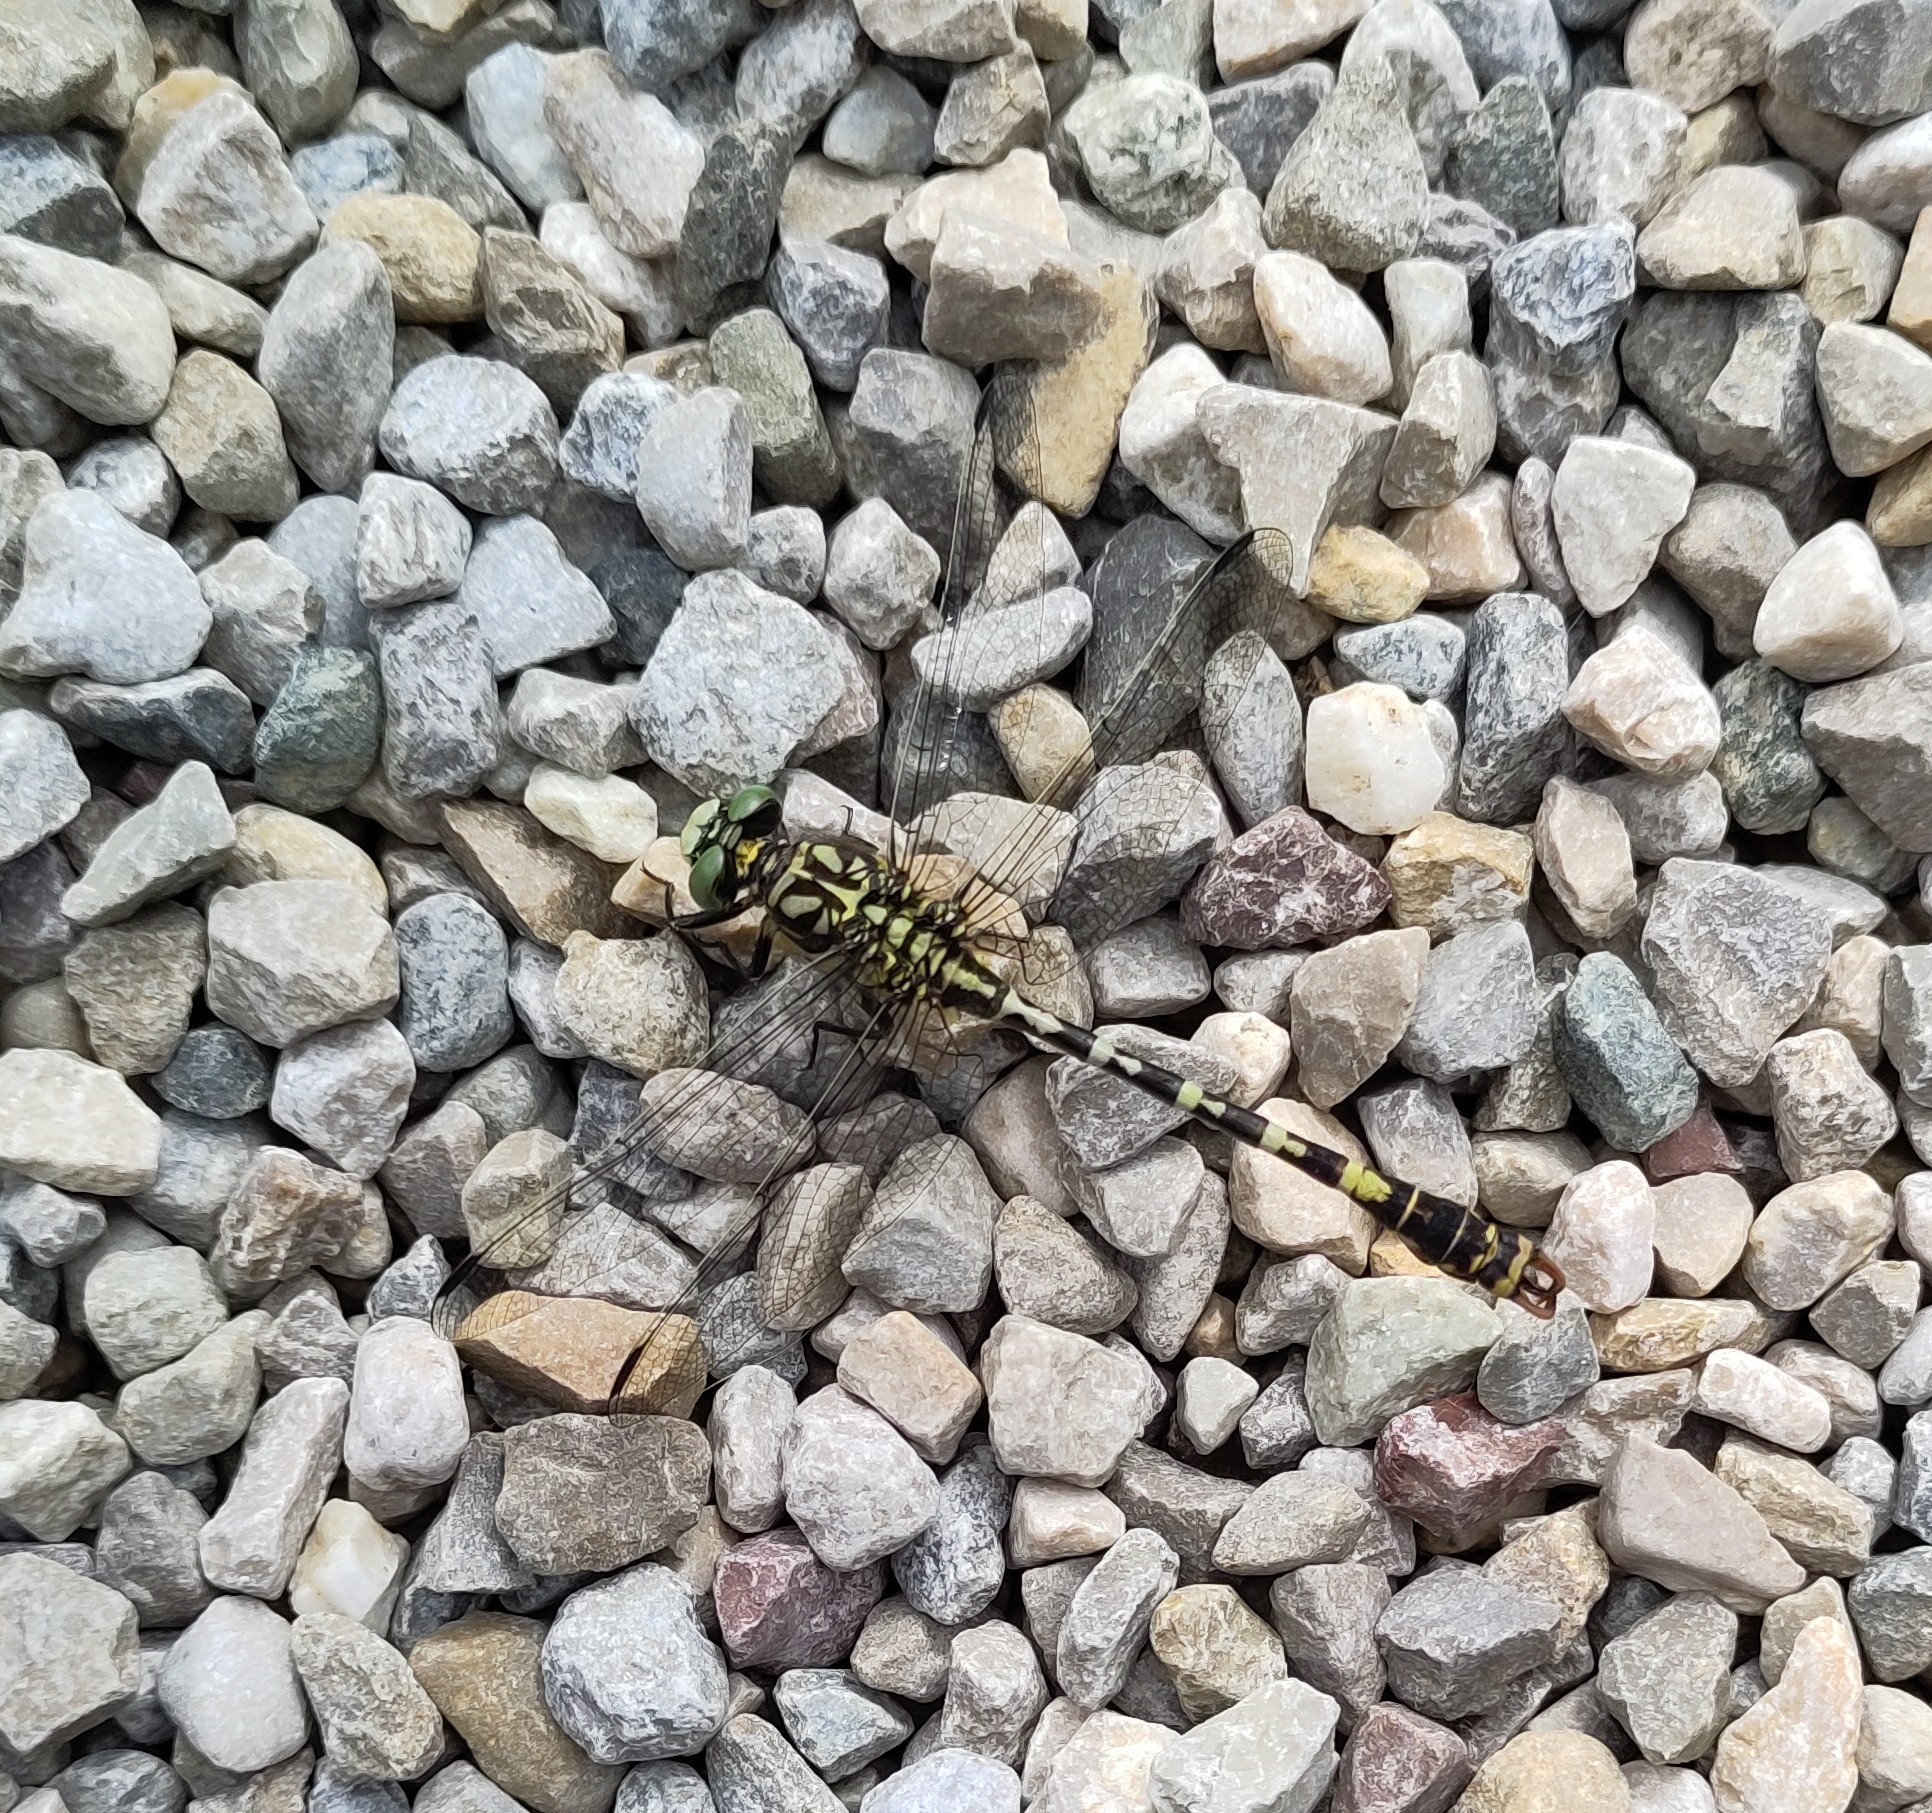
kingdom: Animalia
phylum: Arthropoda
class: Insecta
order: Odonata
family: Gomphidae
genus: Onychogomphus
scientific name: Onychogomphus forcipatus
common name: Small pincertail
